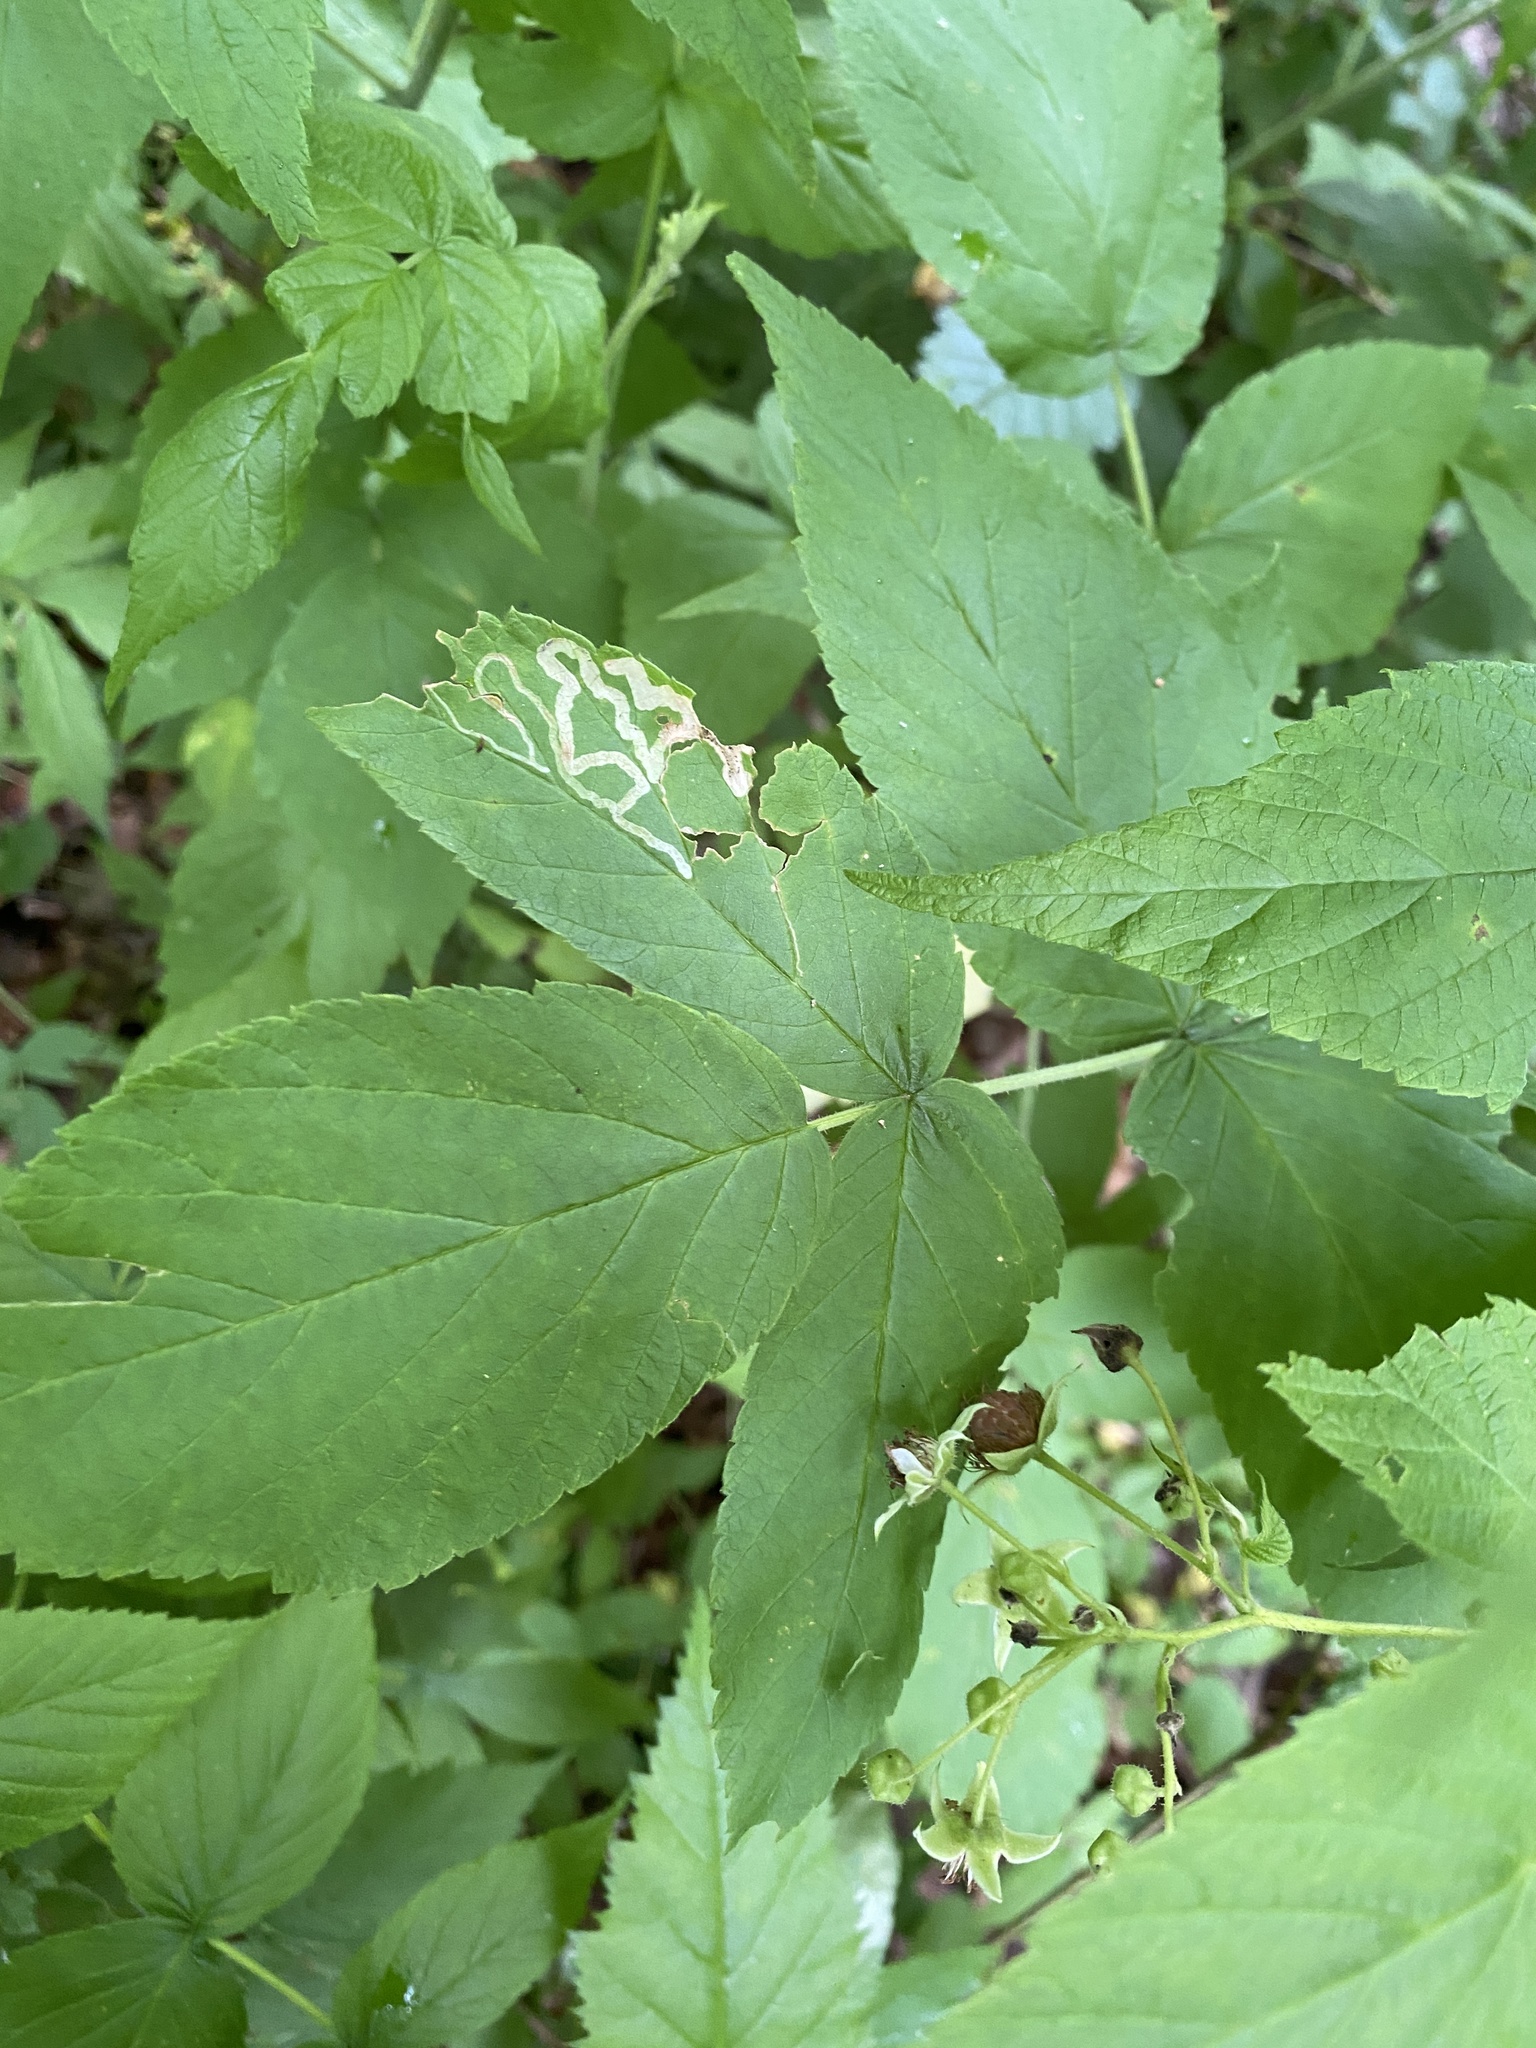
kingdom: Animalia
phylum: Arthropoda
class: Insecta
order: Diptera
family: Agromyzidae
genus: Agromyza
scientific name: Agromyza vockerothi
